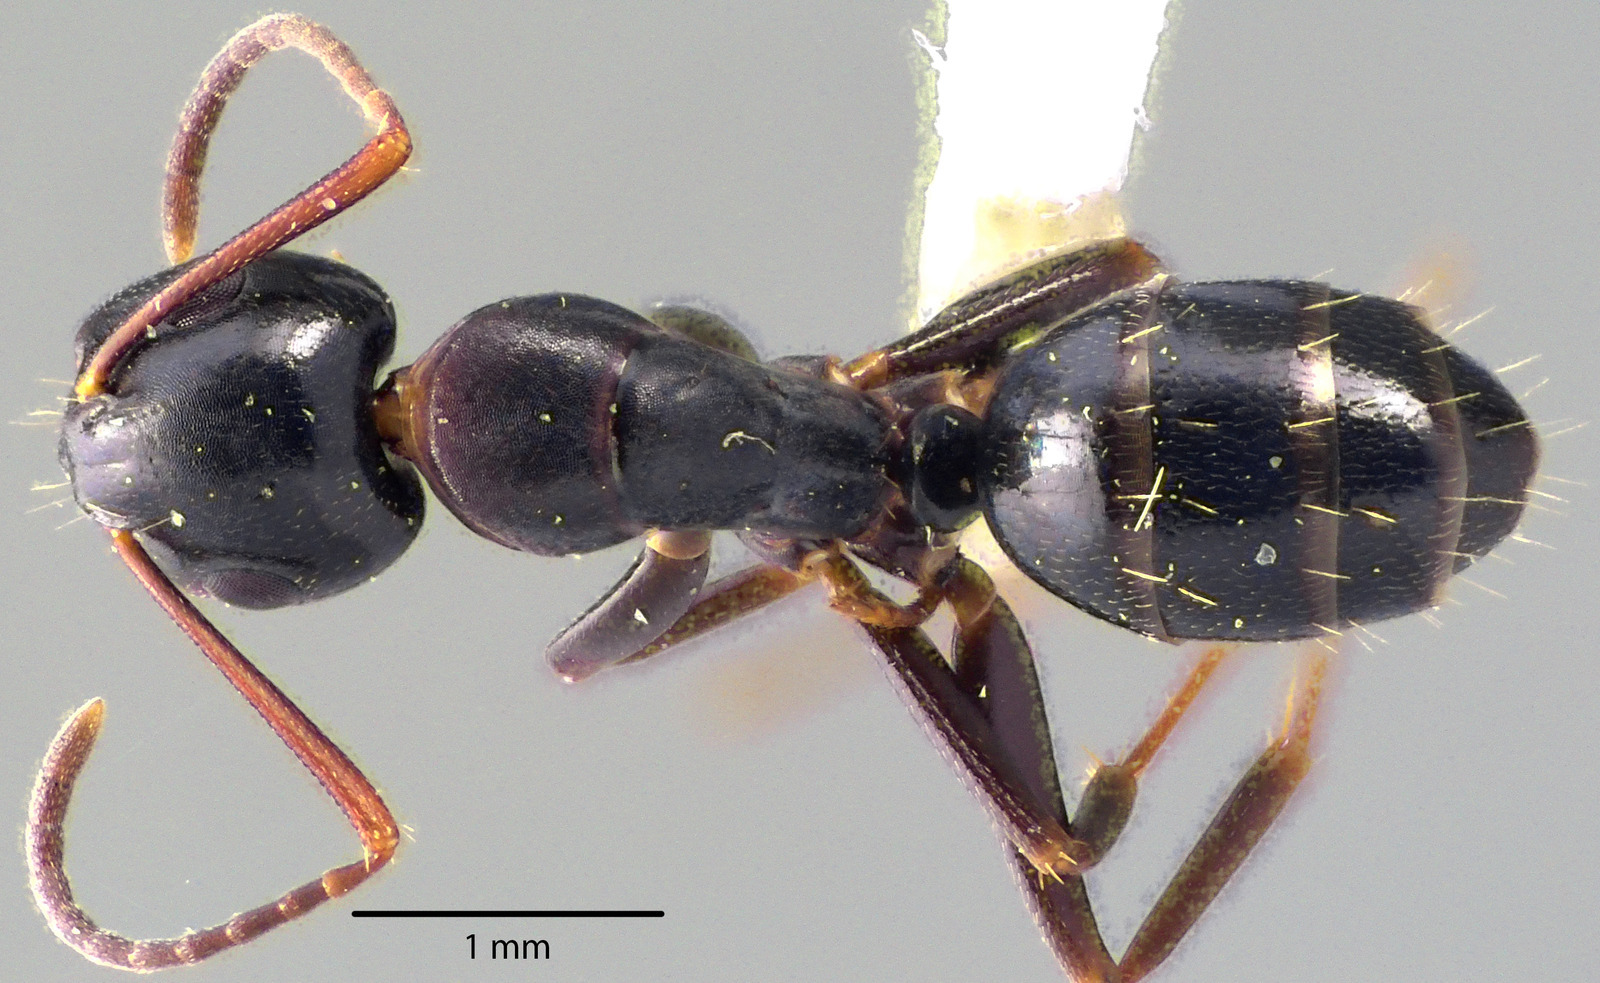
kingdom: Animalia
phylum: Arthropoda
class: Insecta
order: Hymenoptera
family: Formicidae
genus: Camponotus
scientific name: Camponotus nearcticus
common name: Smaller carpenter ant
